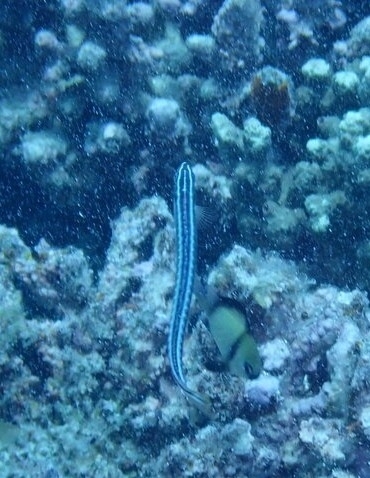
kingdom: Animalia
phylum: Chordata
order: Perciformes
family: Blenniidae
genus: Plagiotremus
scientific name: Plagiotremus tapeinosoma
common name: Hit and run blenny
